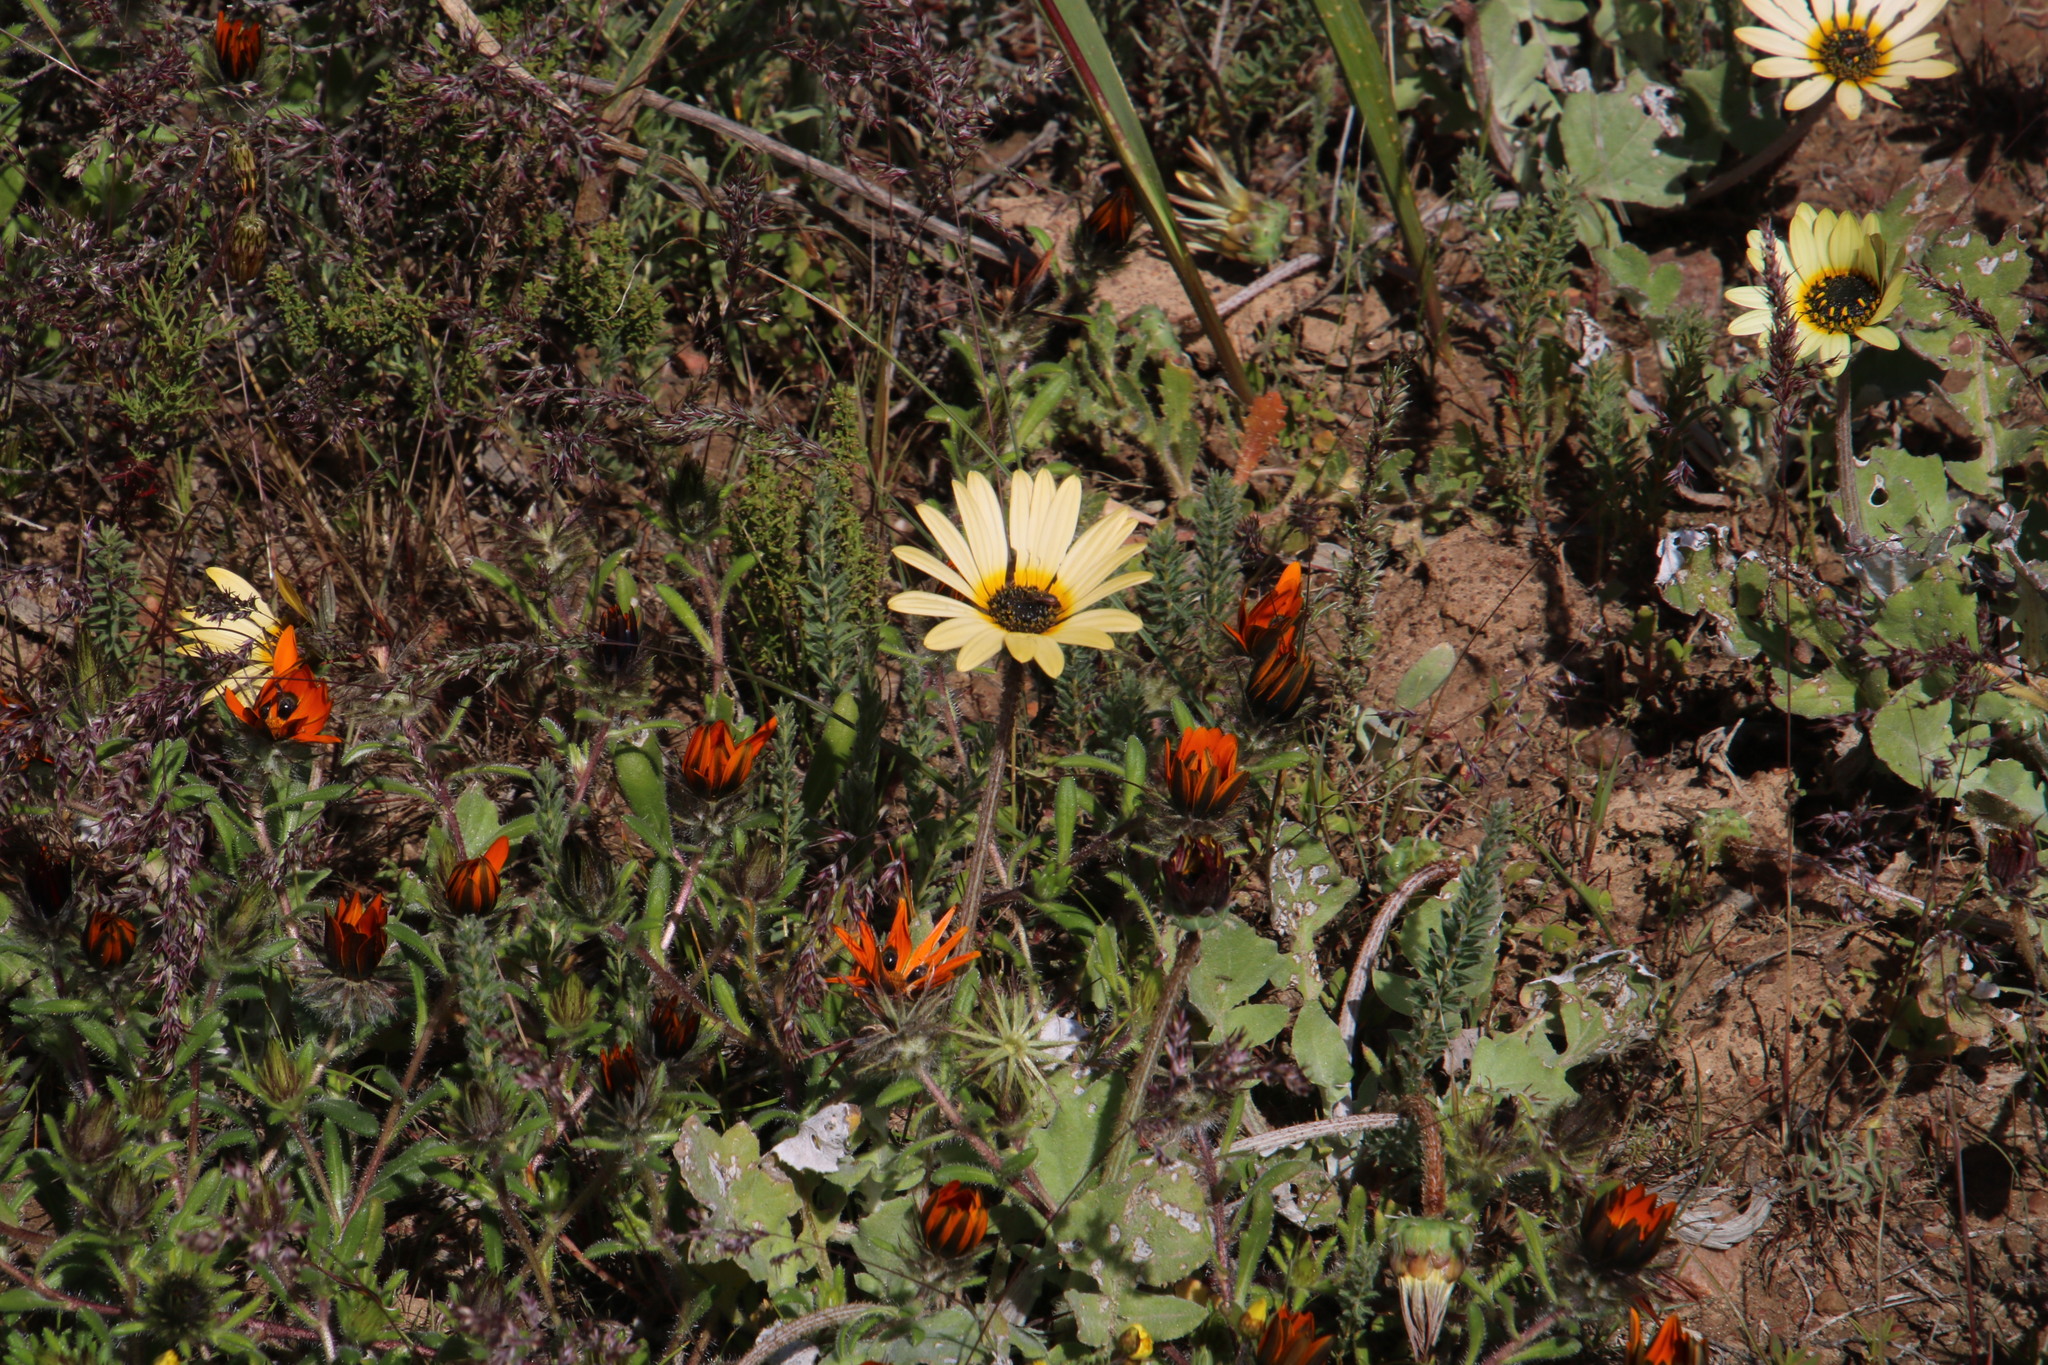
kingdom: Plantae
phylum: Tracheophyta
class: Magnoliopsida
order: Asterales
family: Asteraceae
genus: Arctotheca
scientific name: Arctotheca calendula
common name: Capeweed
